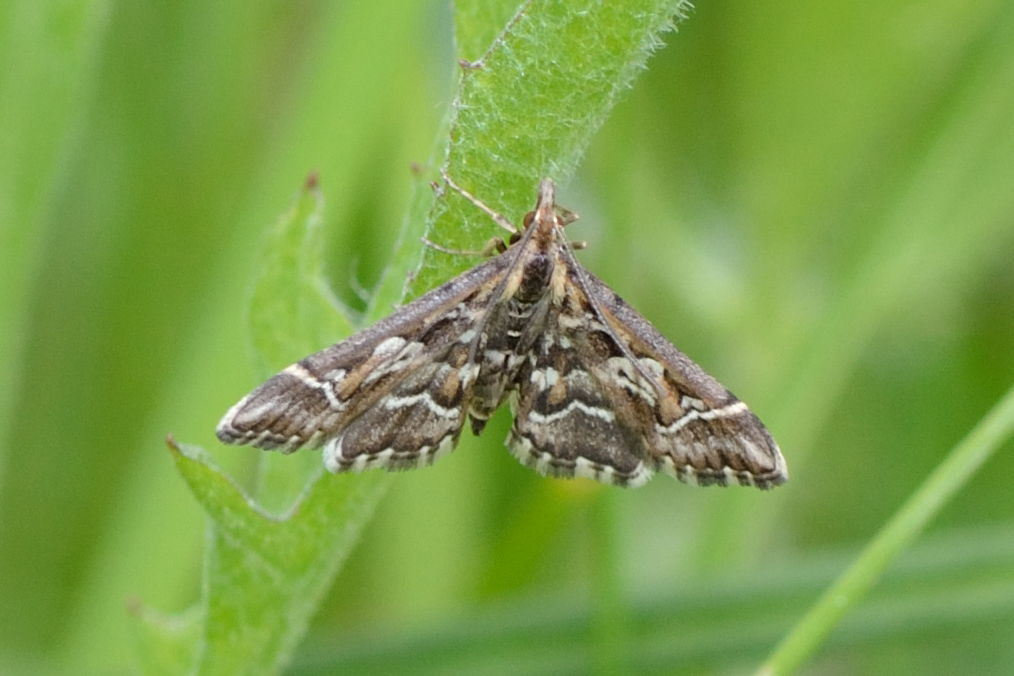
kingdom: Animalia
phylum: Arthropoda
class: Insecta
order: Lepidoptera
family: Crambidae
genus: Diasemia
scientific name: Diasemia reticularis
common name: Lettered china-mark
